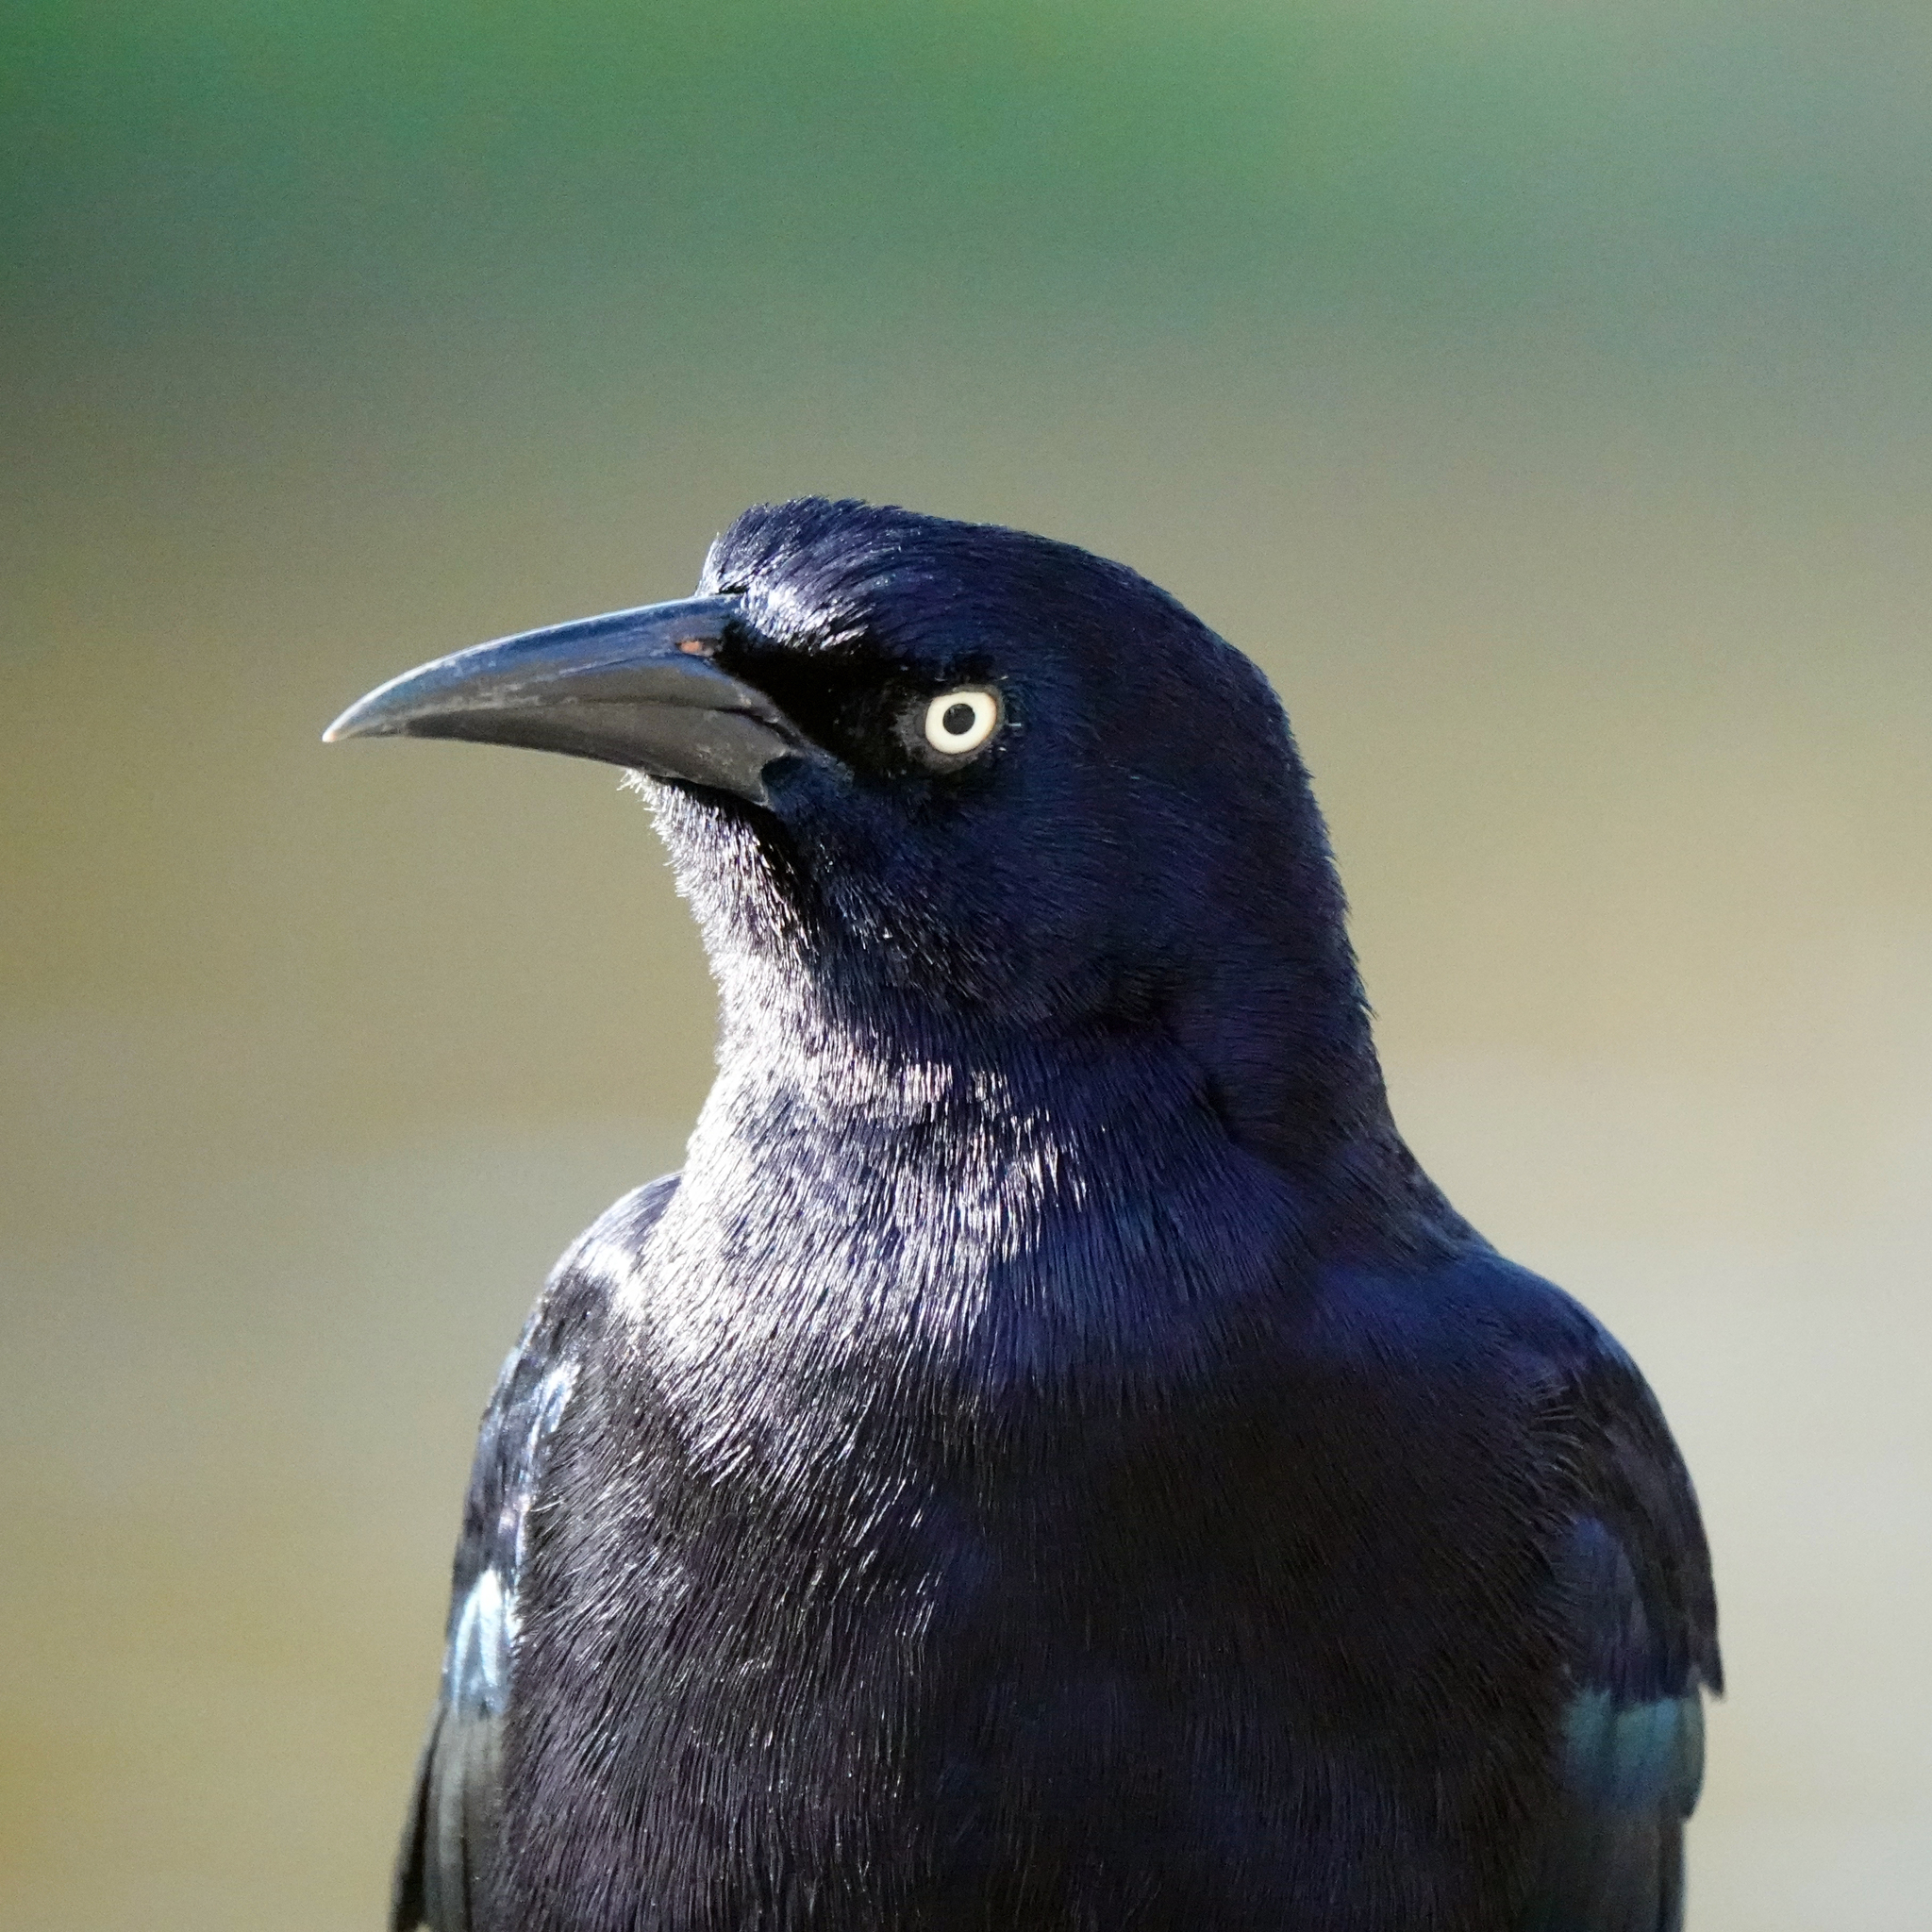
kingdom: Animalia
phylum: Chordata
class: Aves
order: Passeriformes
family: Icteridae
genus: Quiscalus
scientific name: Quiscalus mexicanus
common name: Great-tailed grackle
